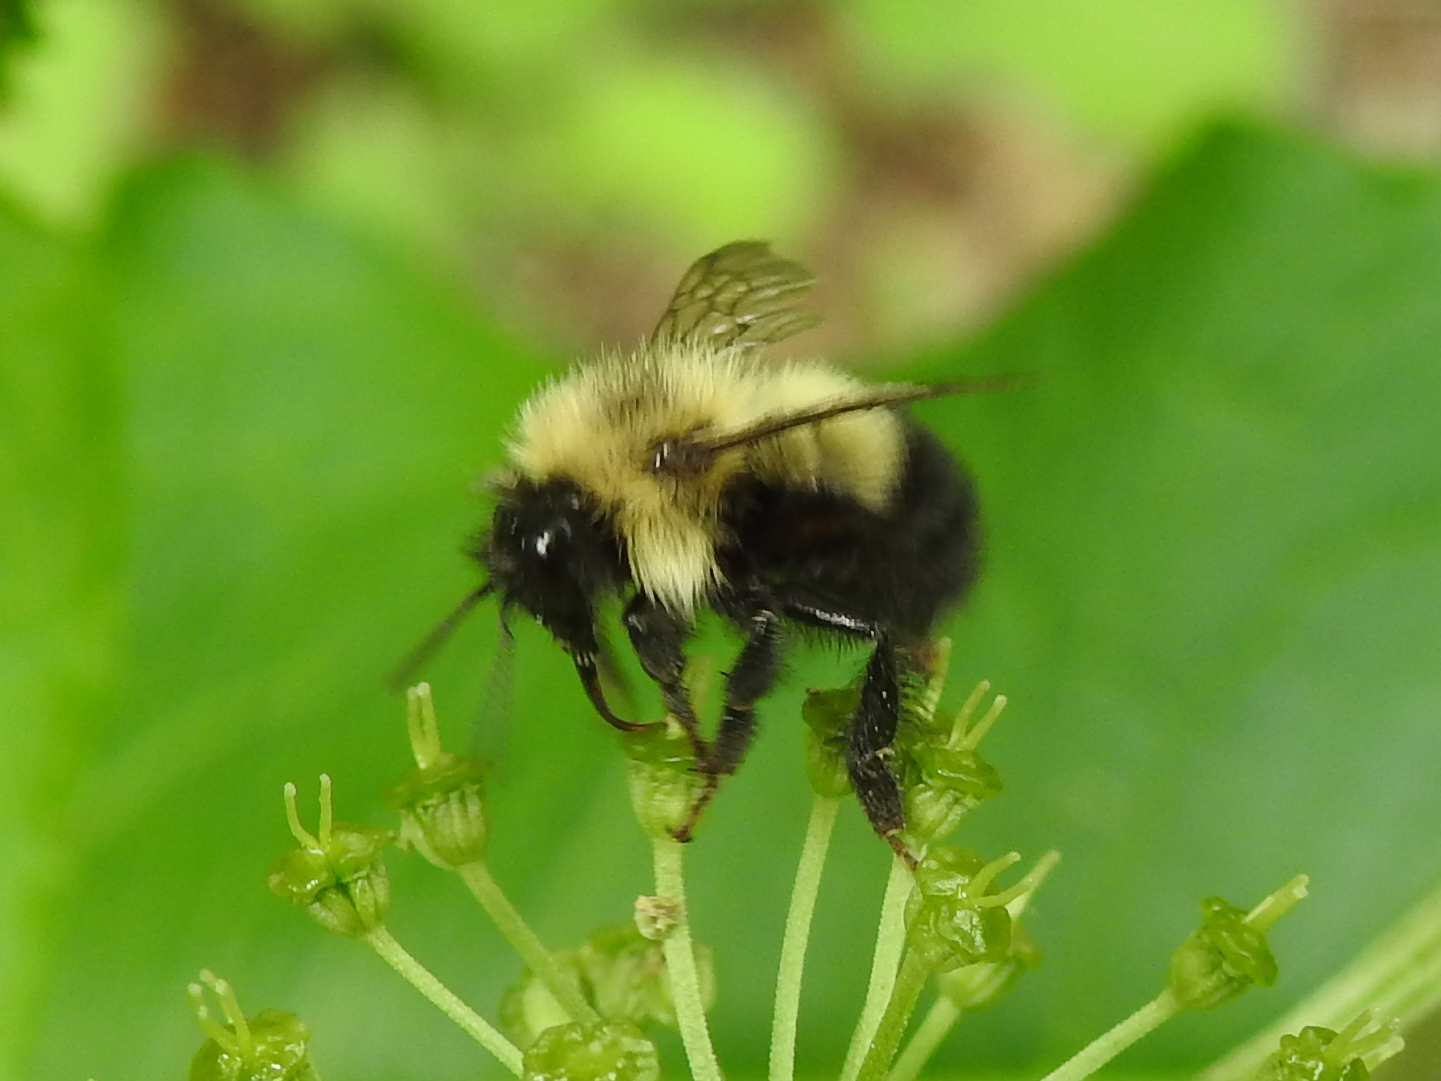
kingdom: Animalia
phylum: Arthropoda
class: Insecta
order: Hymenoptera
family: Apidae
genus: Pyrobombus
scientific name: Pyrobombus
